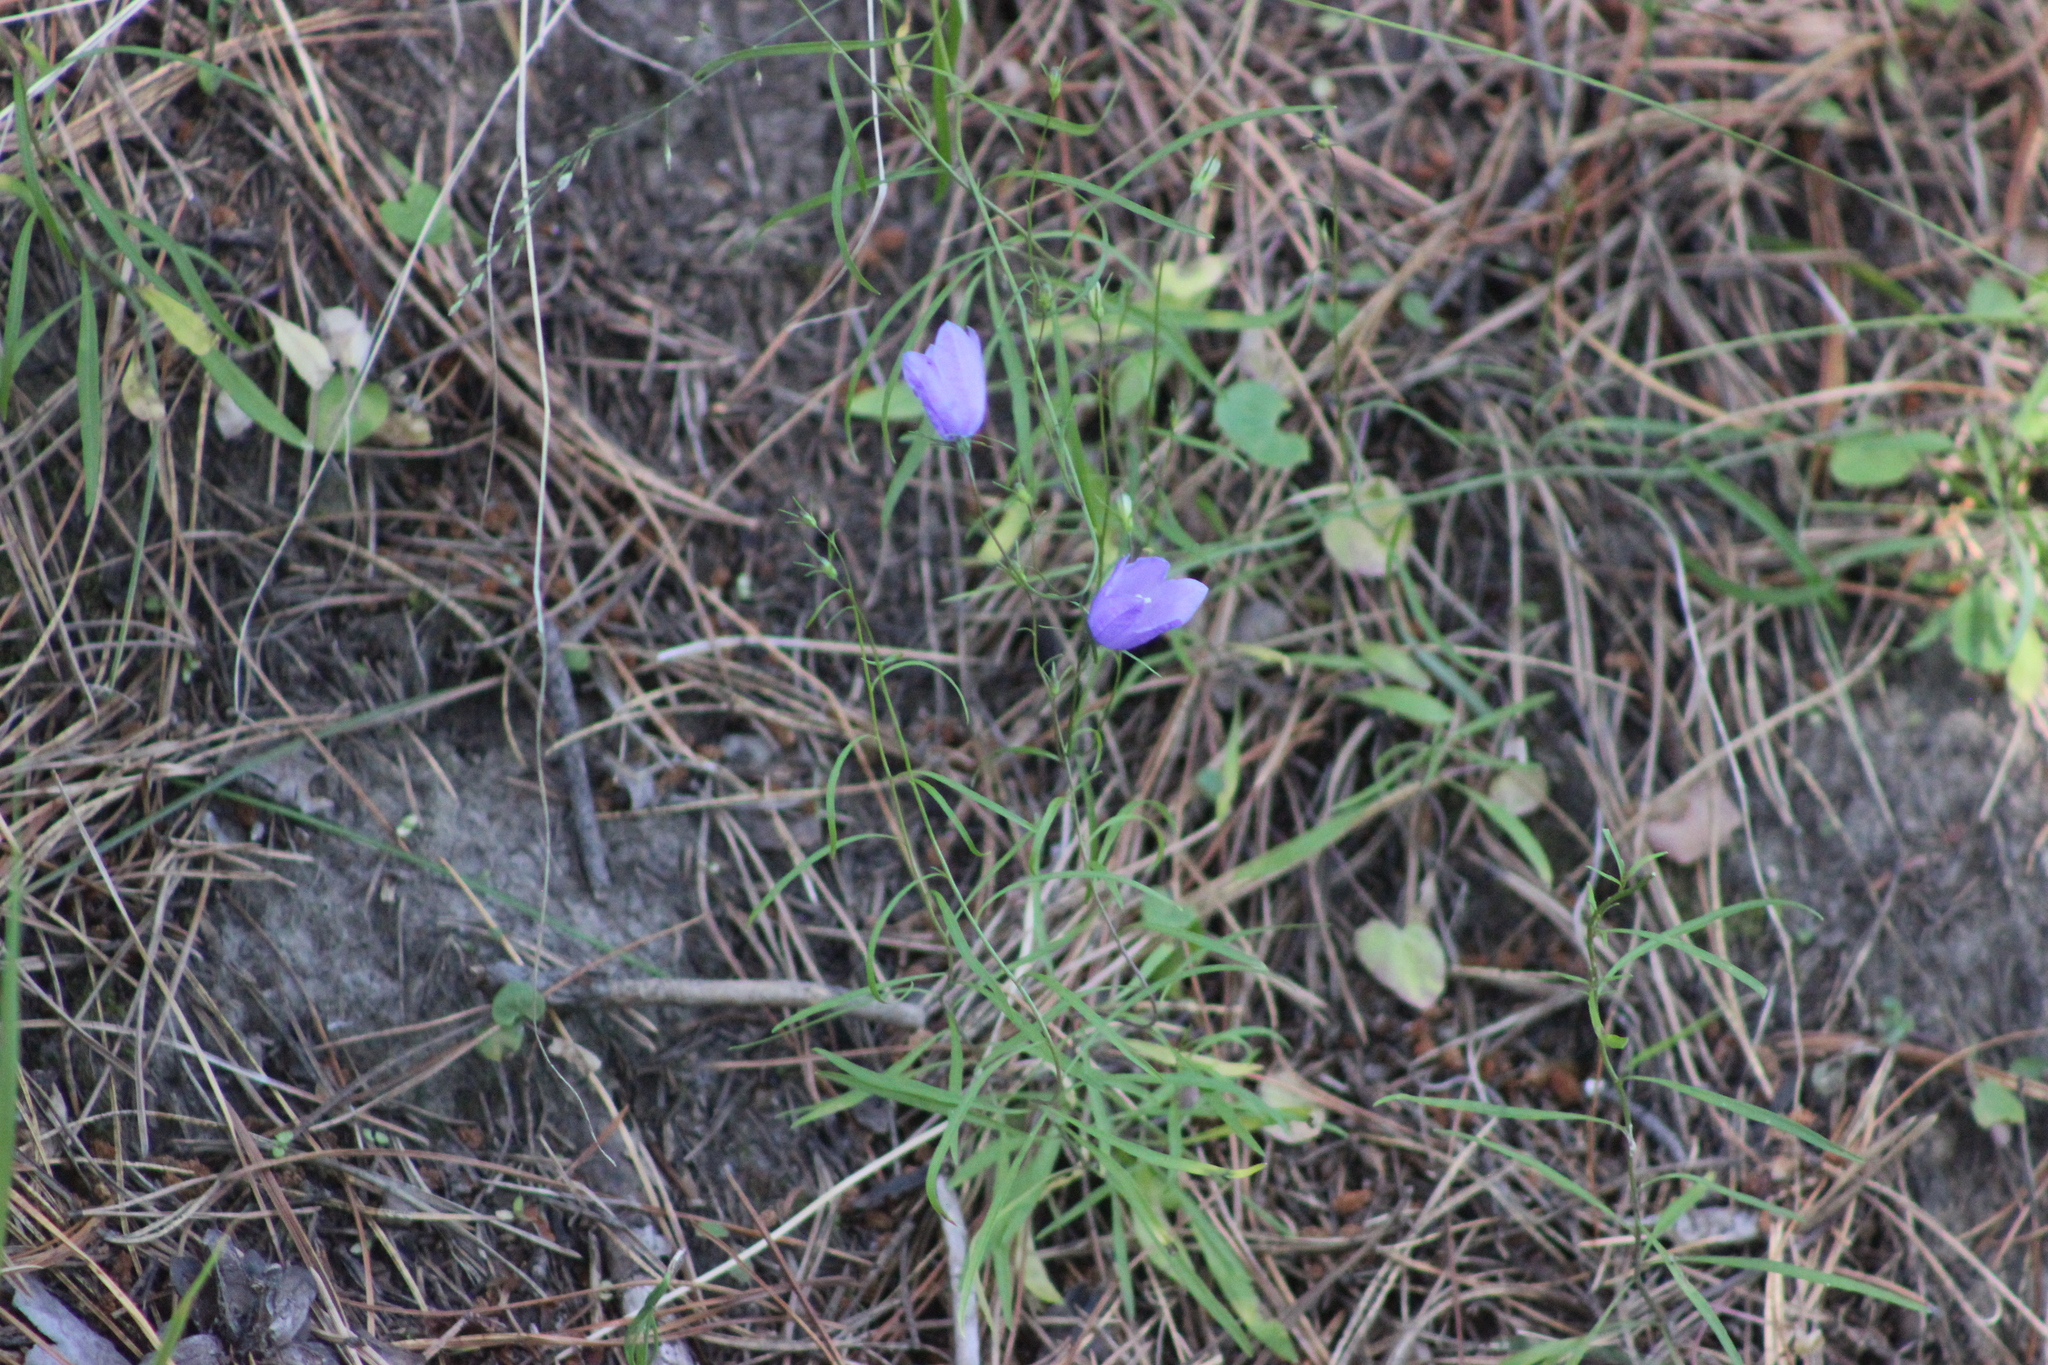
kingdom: Plantae
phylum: Tracheophyta
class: Magnoliopsida
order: Asterales
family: Campanulaceae
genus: Campanula
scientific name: Campanula rotundifolia
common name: Harebell
